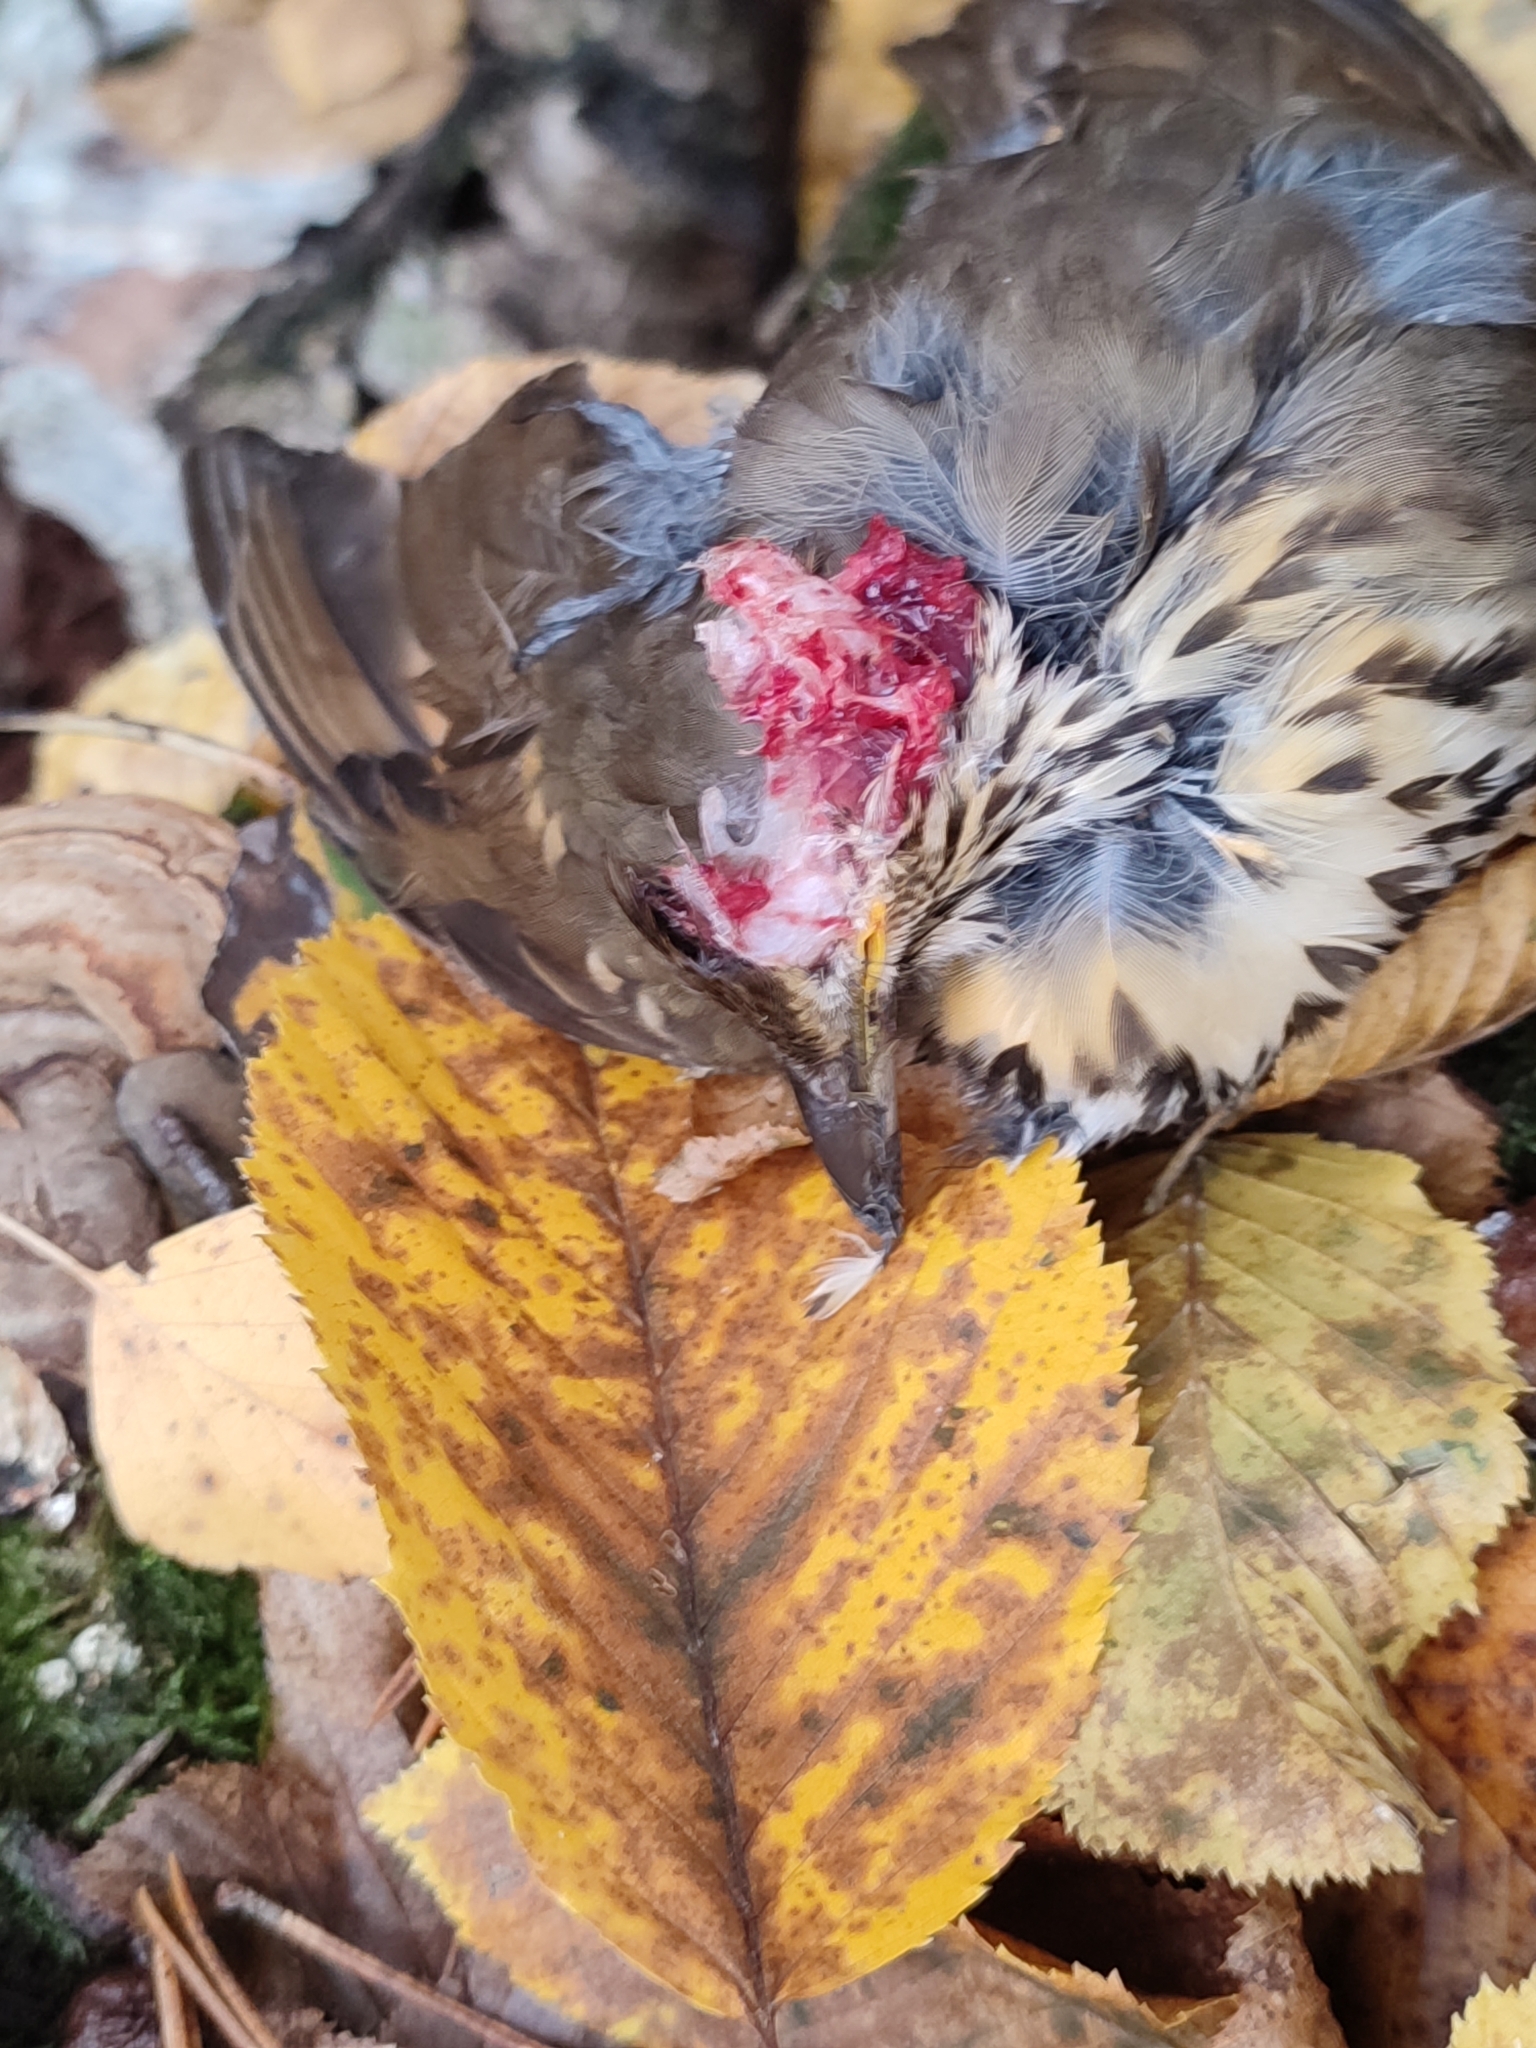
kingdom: Animalia
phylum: Chordata
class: Aves
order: Passeriformes
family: Turdidae
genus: Turdus
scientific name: Turdus philomelos
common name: Song thrush
